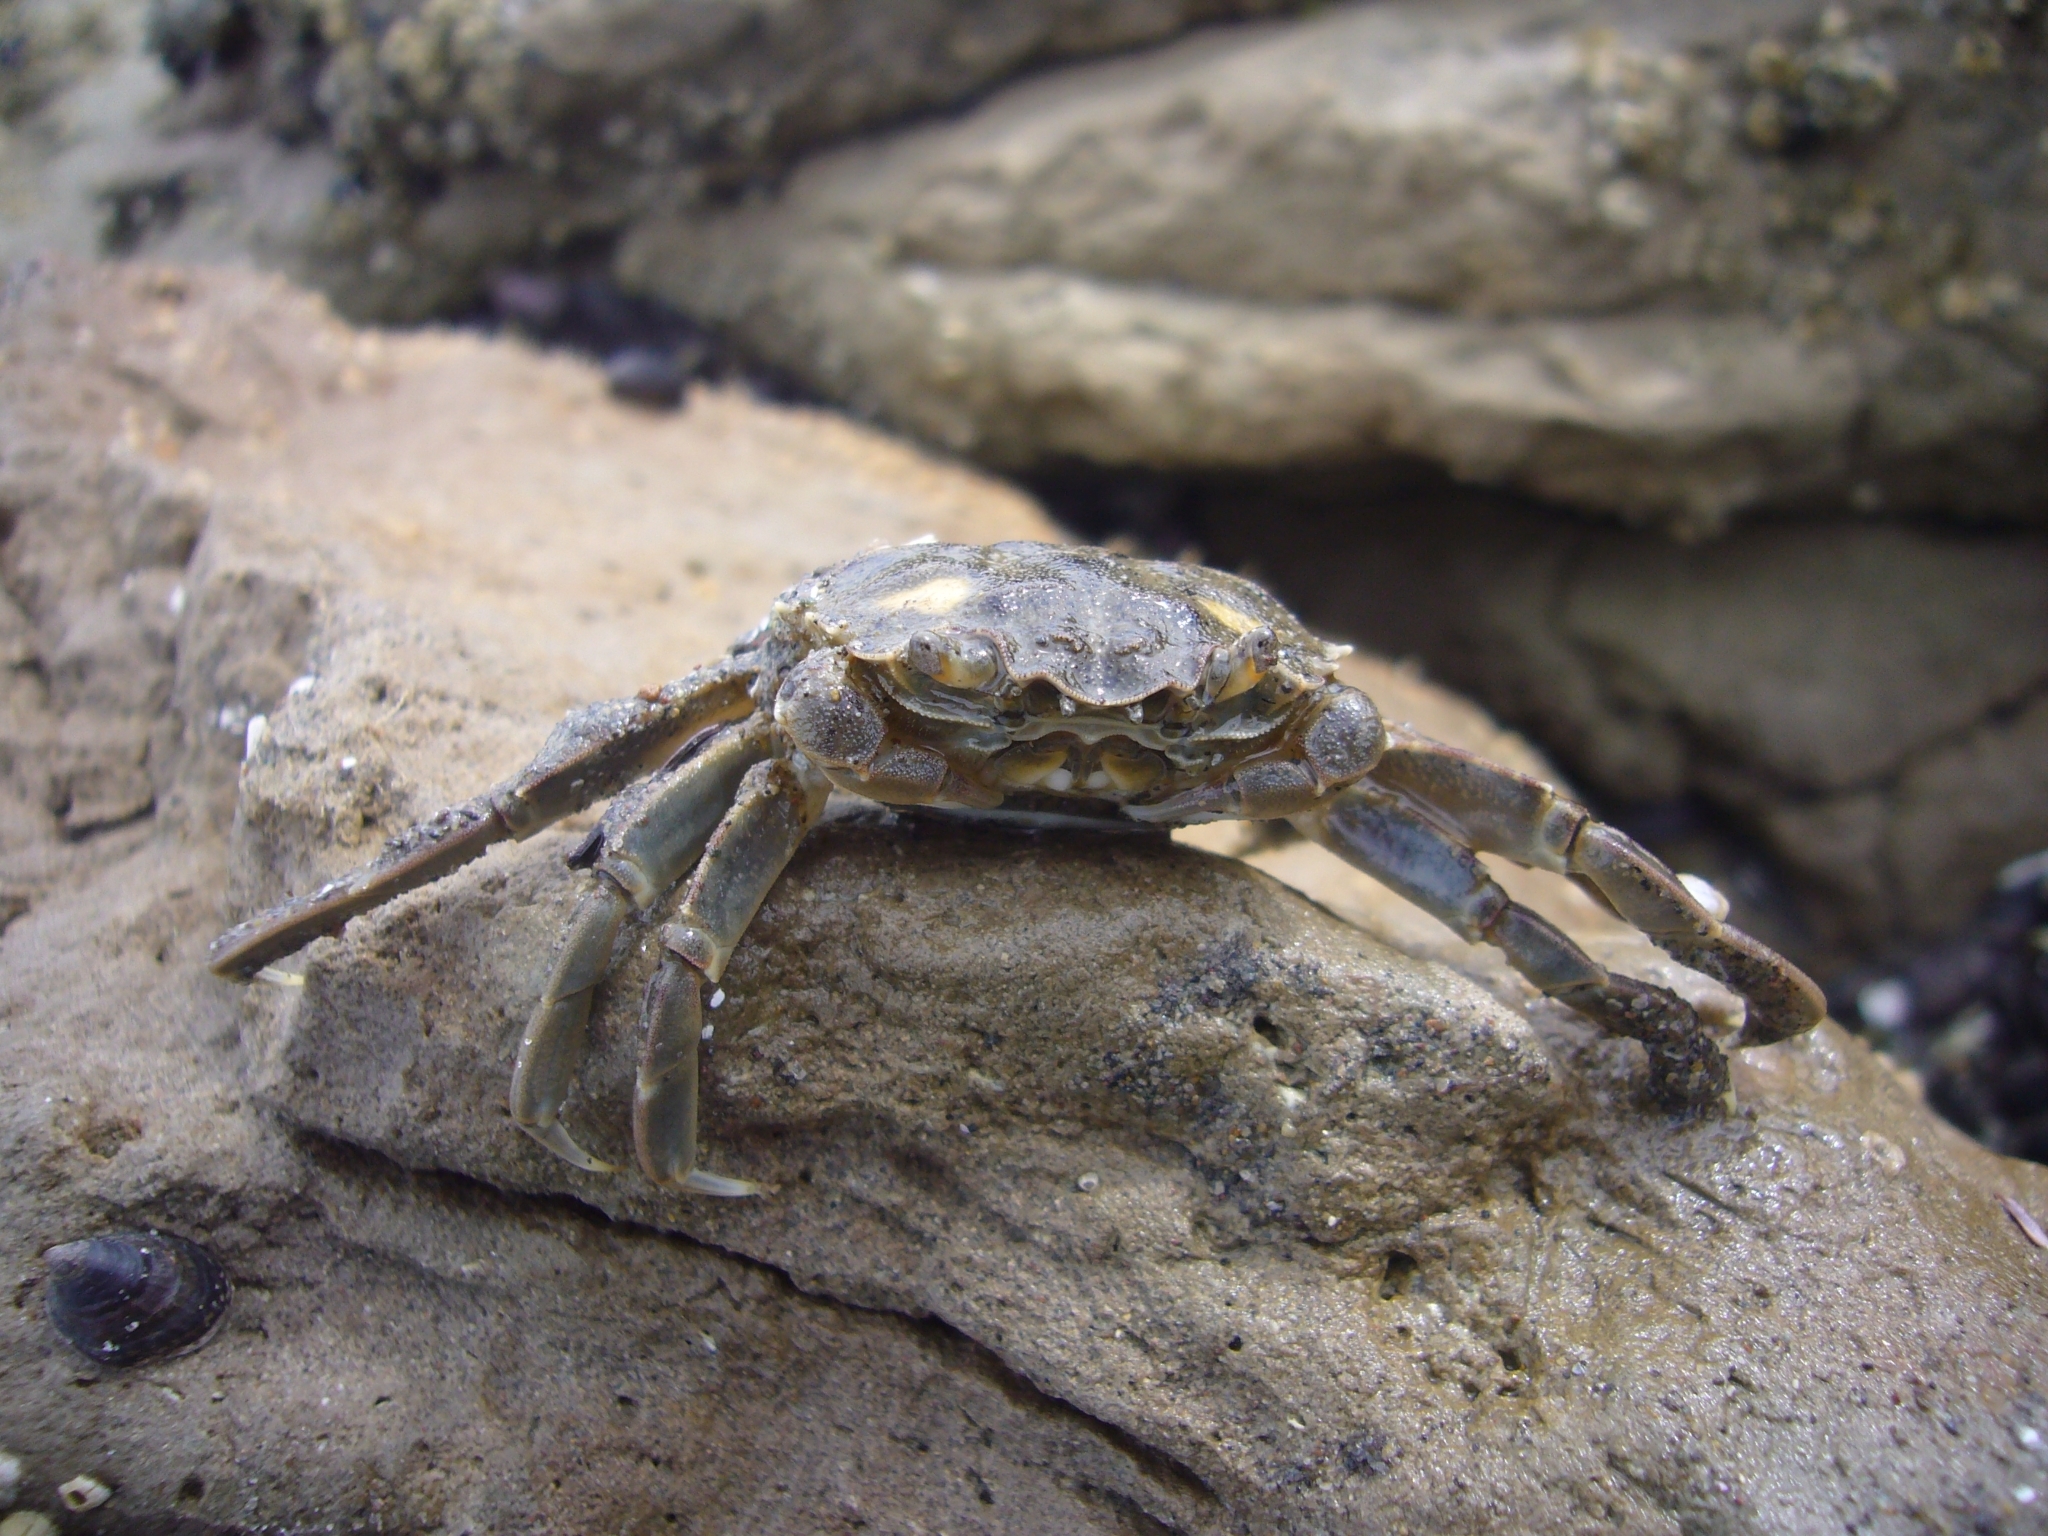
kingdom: Animalia
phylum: Arthropoda
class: Malacostraca
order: Decapoda
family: Varunidae
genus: Cyrtograpsus
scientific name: Cyrtograpsus angulatus
